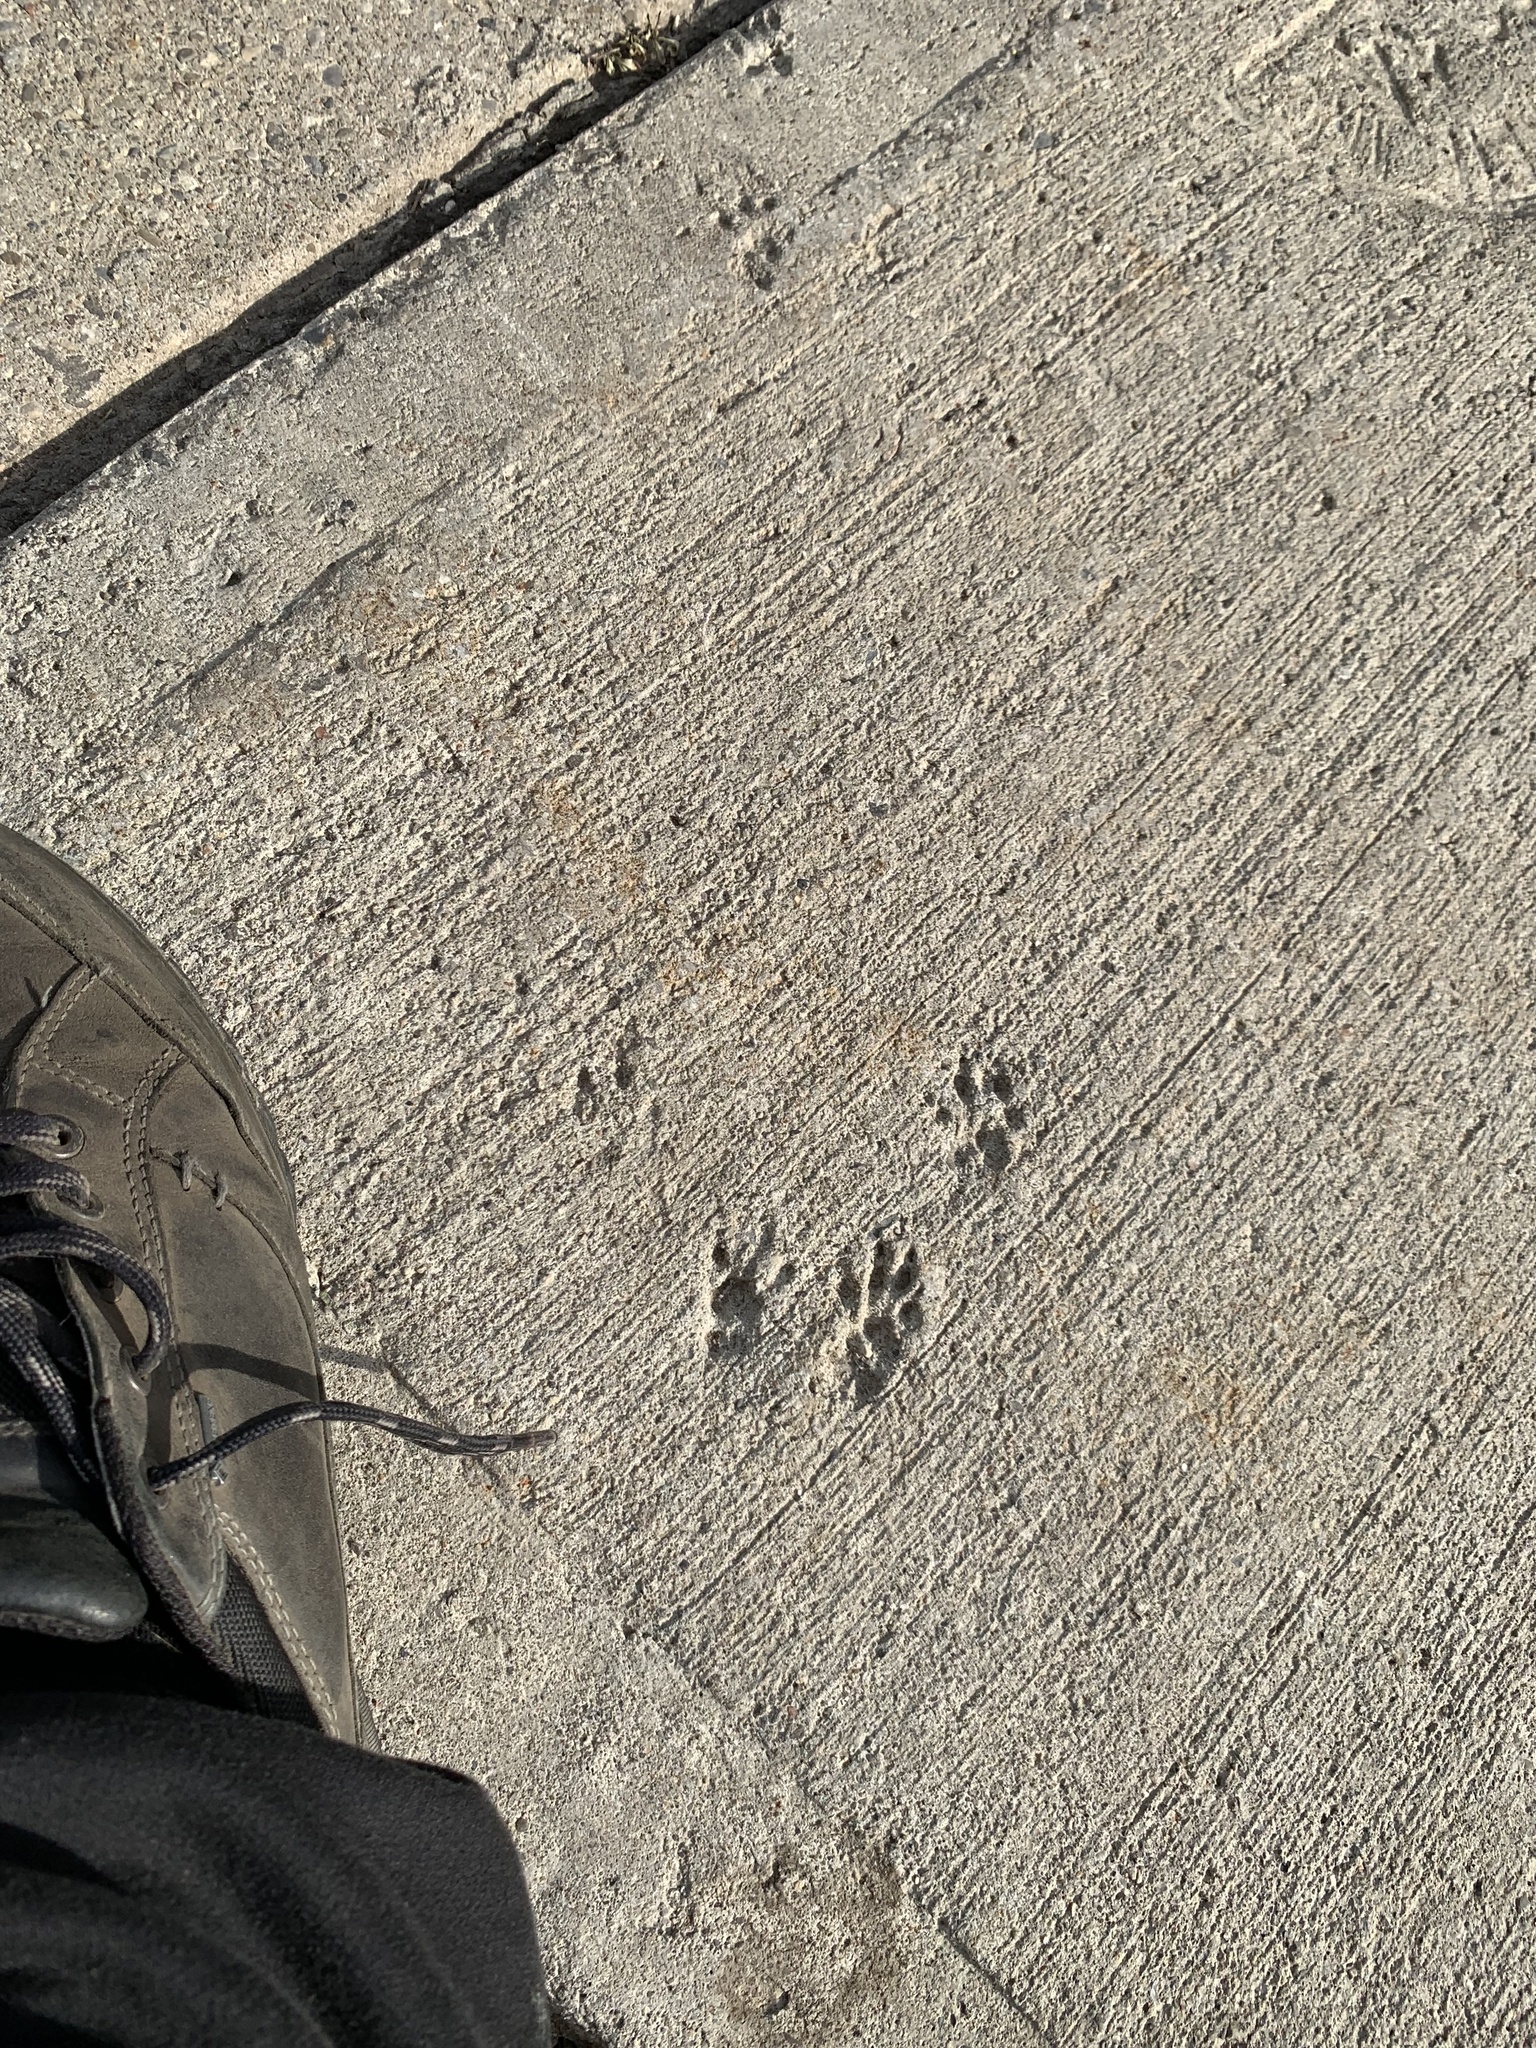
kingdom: Animalia
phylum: Chordata
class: Mammalia
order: Rodentia
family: Sciuridae
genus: Sciurus
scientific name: Sciurus carolinensis
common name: Eastern gray squirrel
